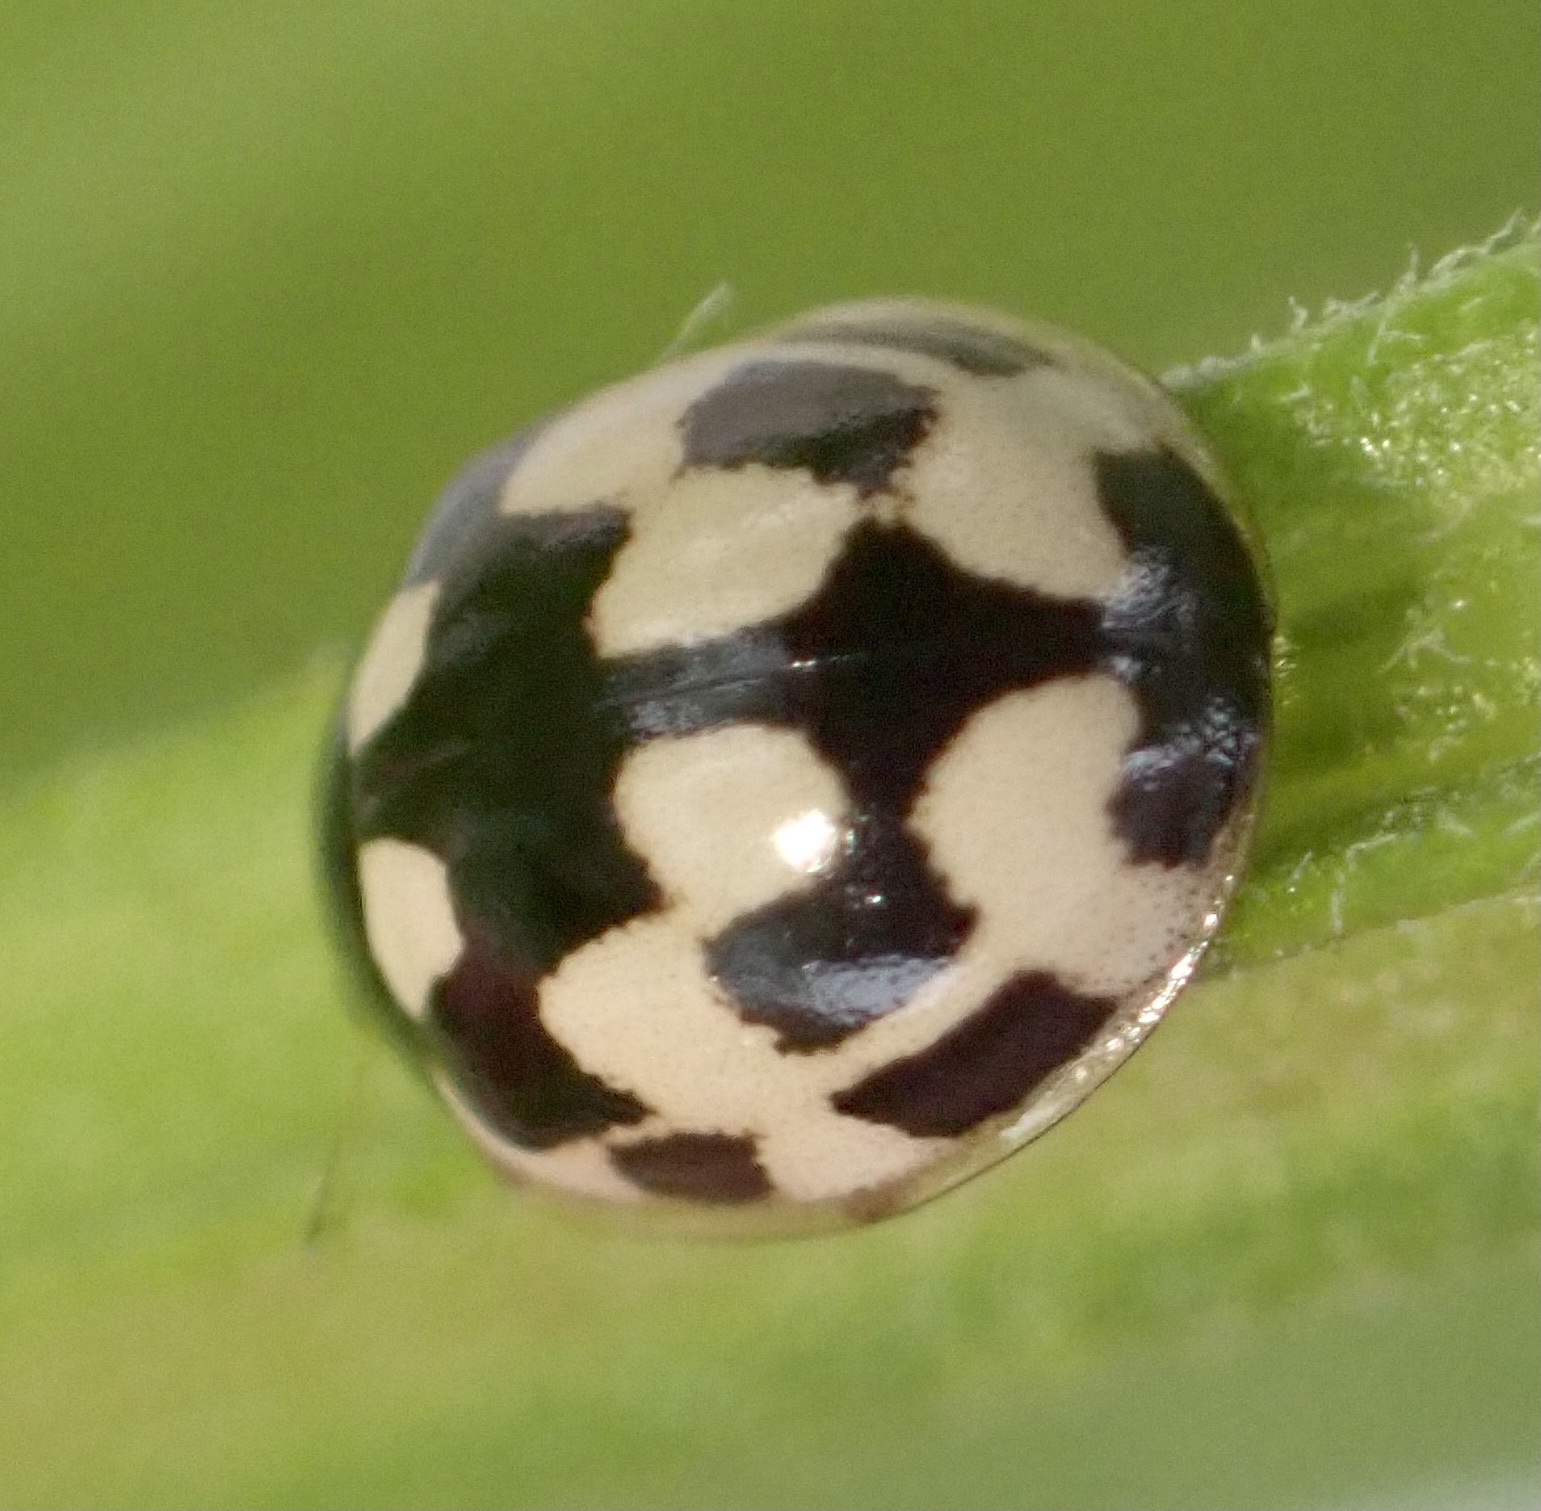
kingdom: Animalia
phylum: Arthropoda
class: Insecta
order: Coleoptera
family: Coccinellidae
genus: Propylaea
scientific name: Propylaea quatuordecimpunctata
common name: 14-spotted ladybird beetle
